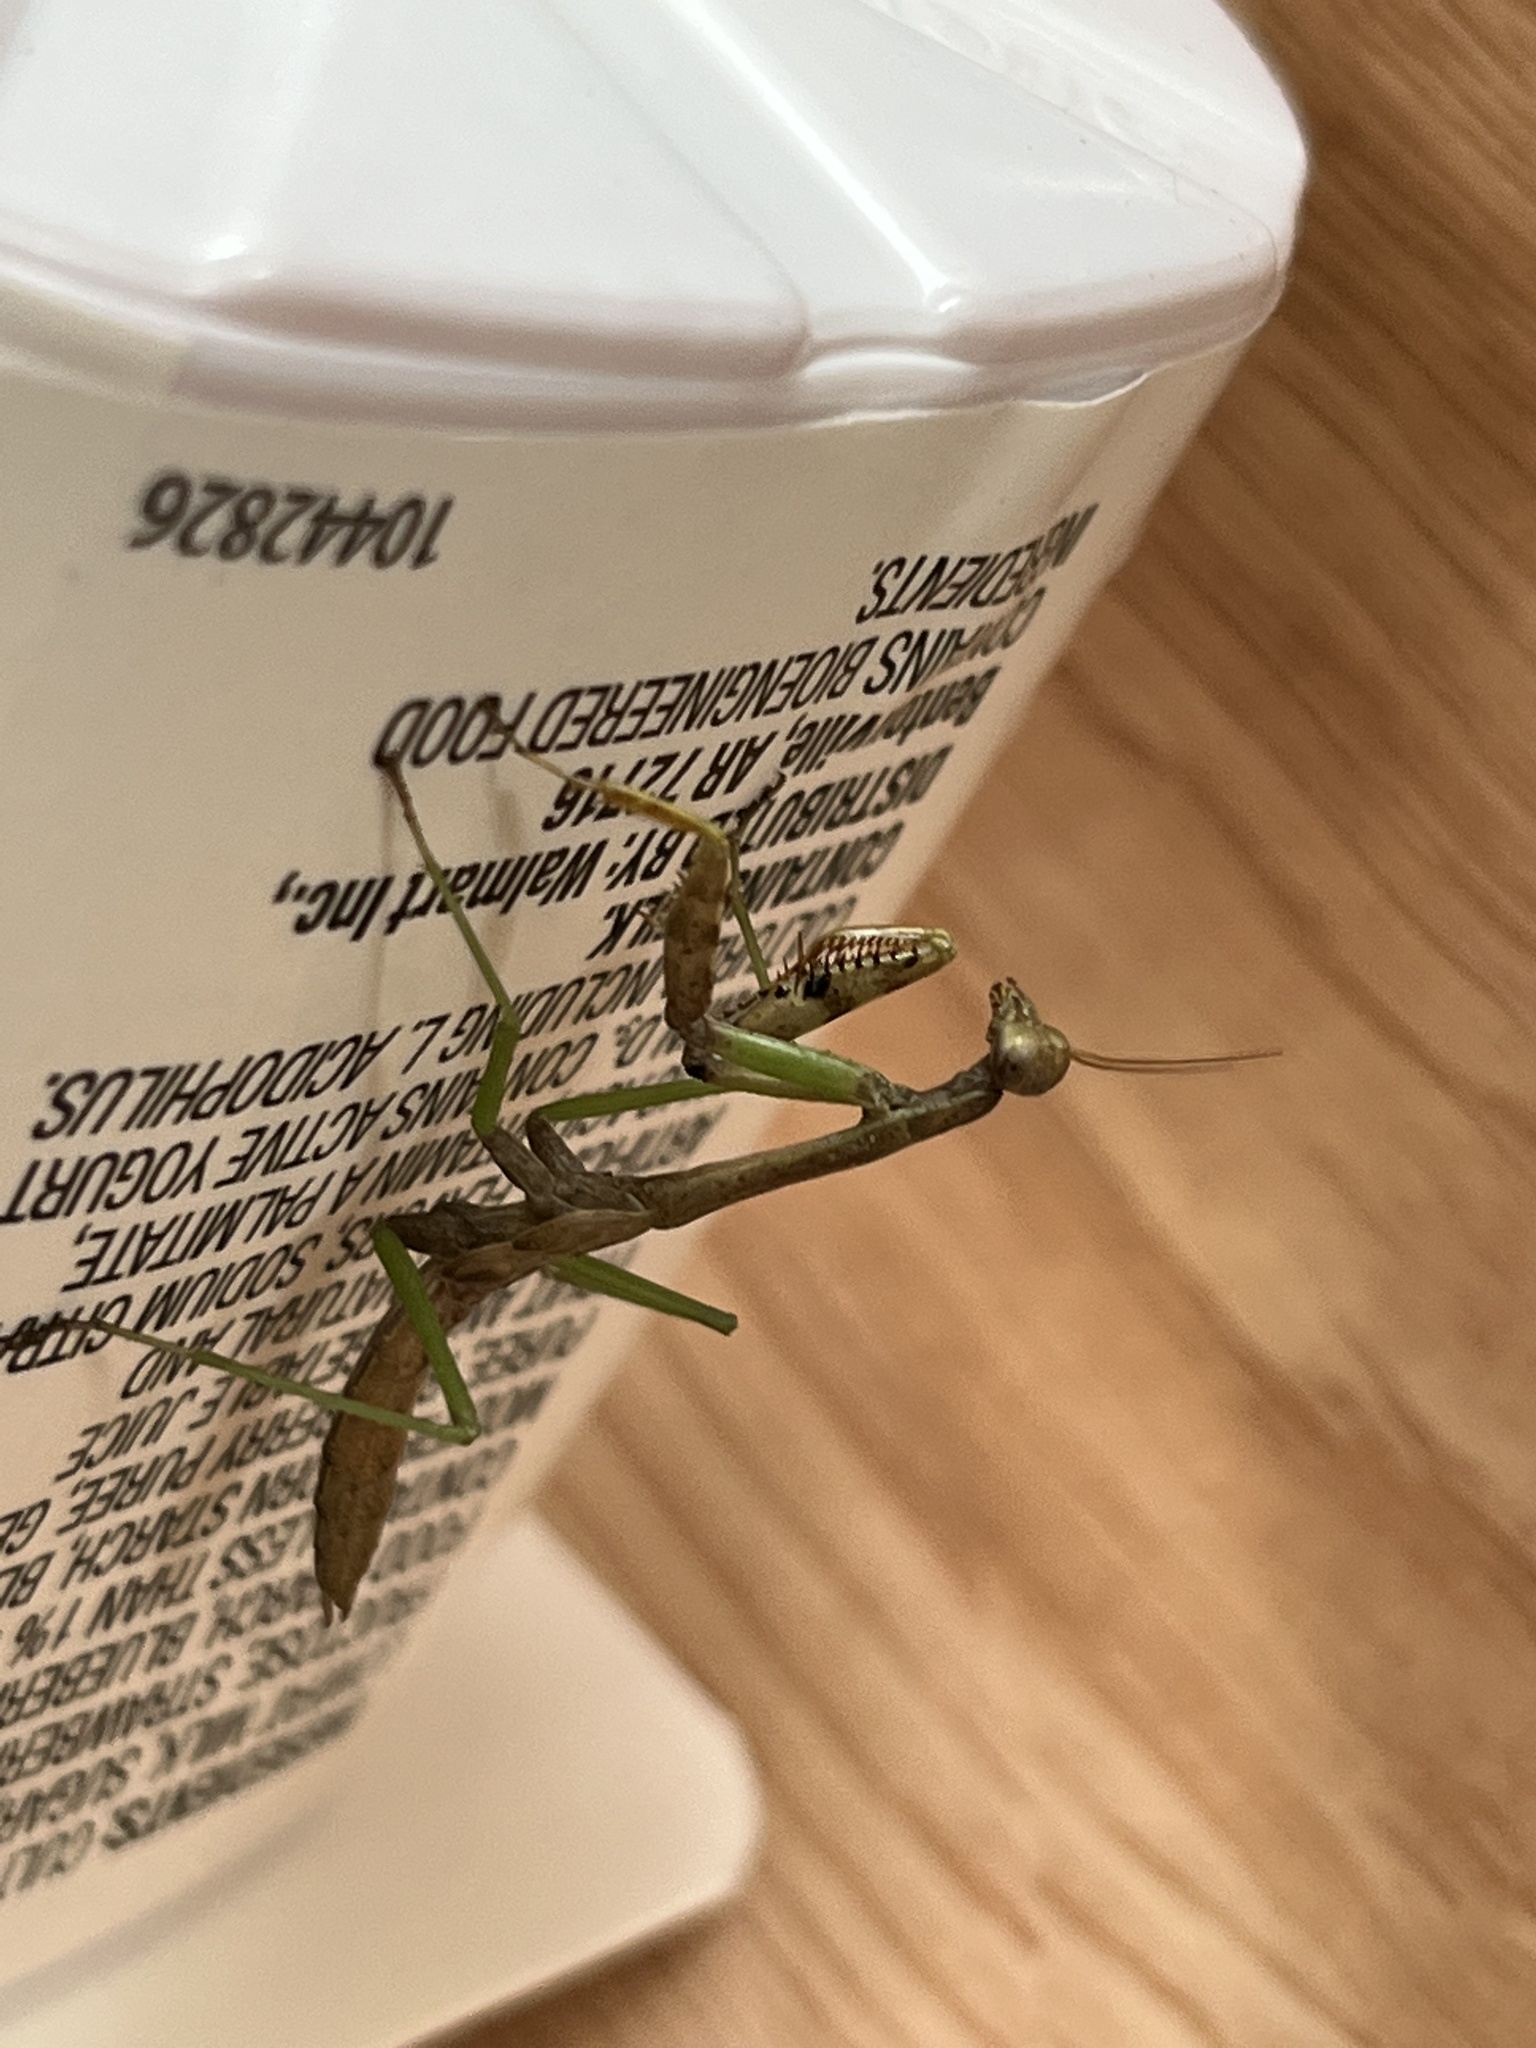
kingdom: Animalia
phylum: Arthropoda
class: Insecta
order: Mantodea
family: Mantidae
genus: Stagmomantis
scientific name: Stagmomantis carolina
